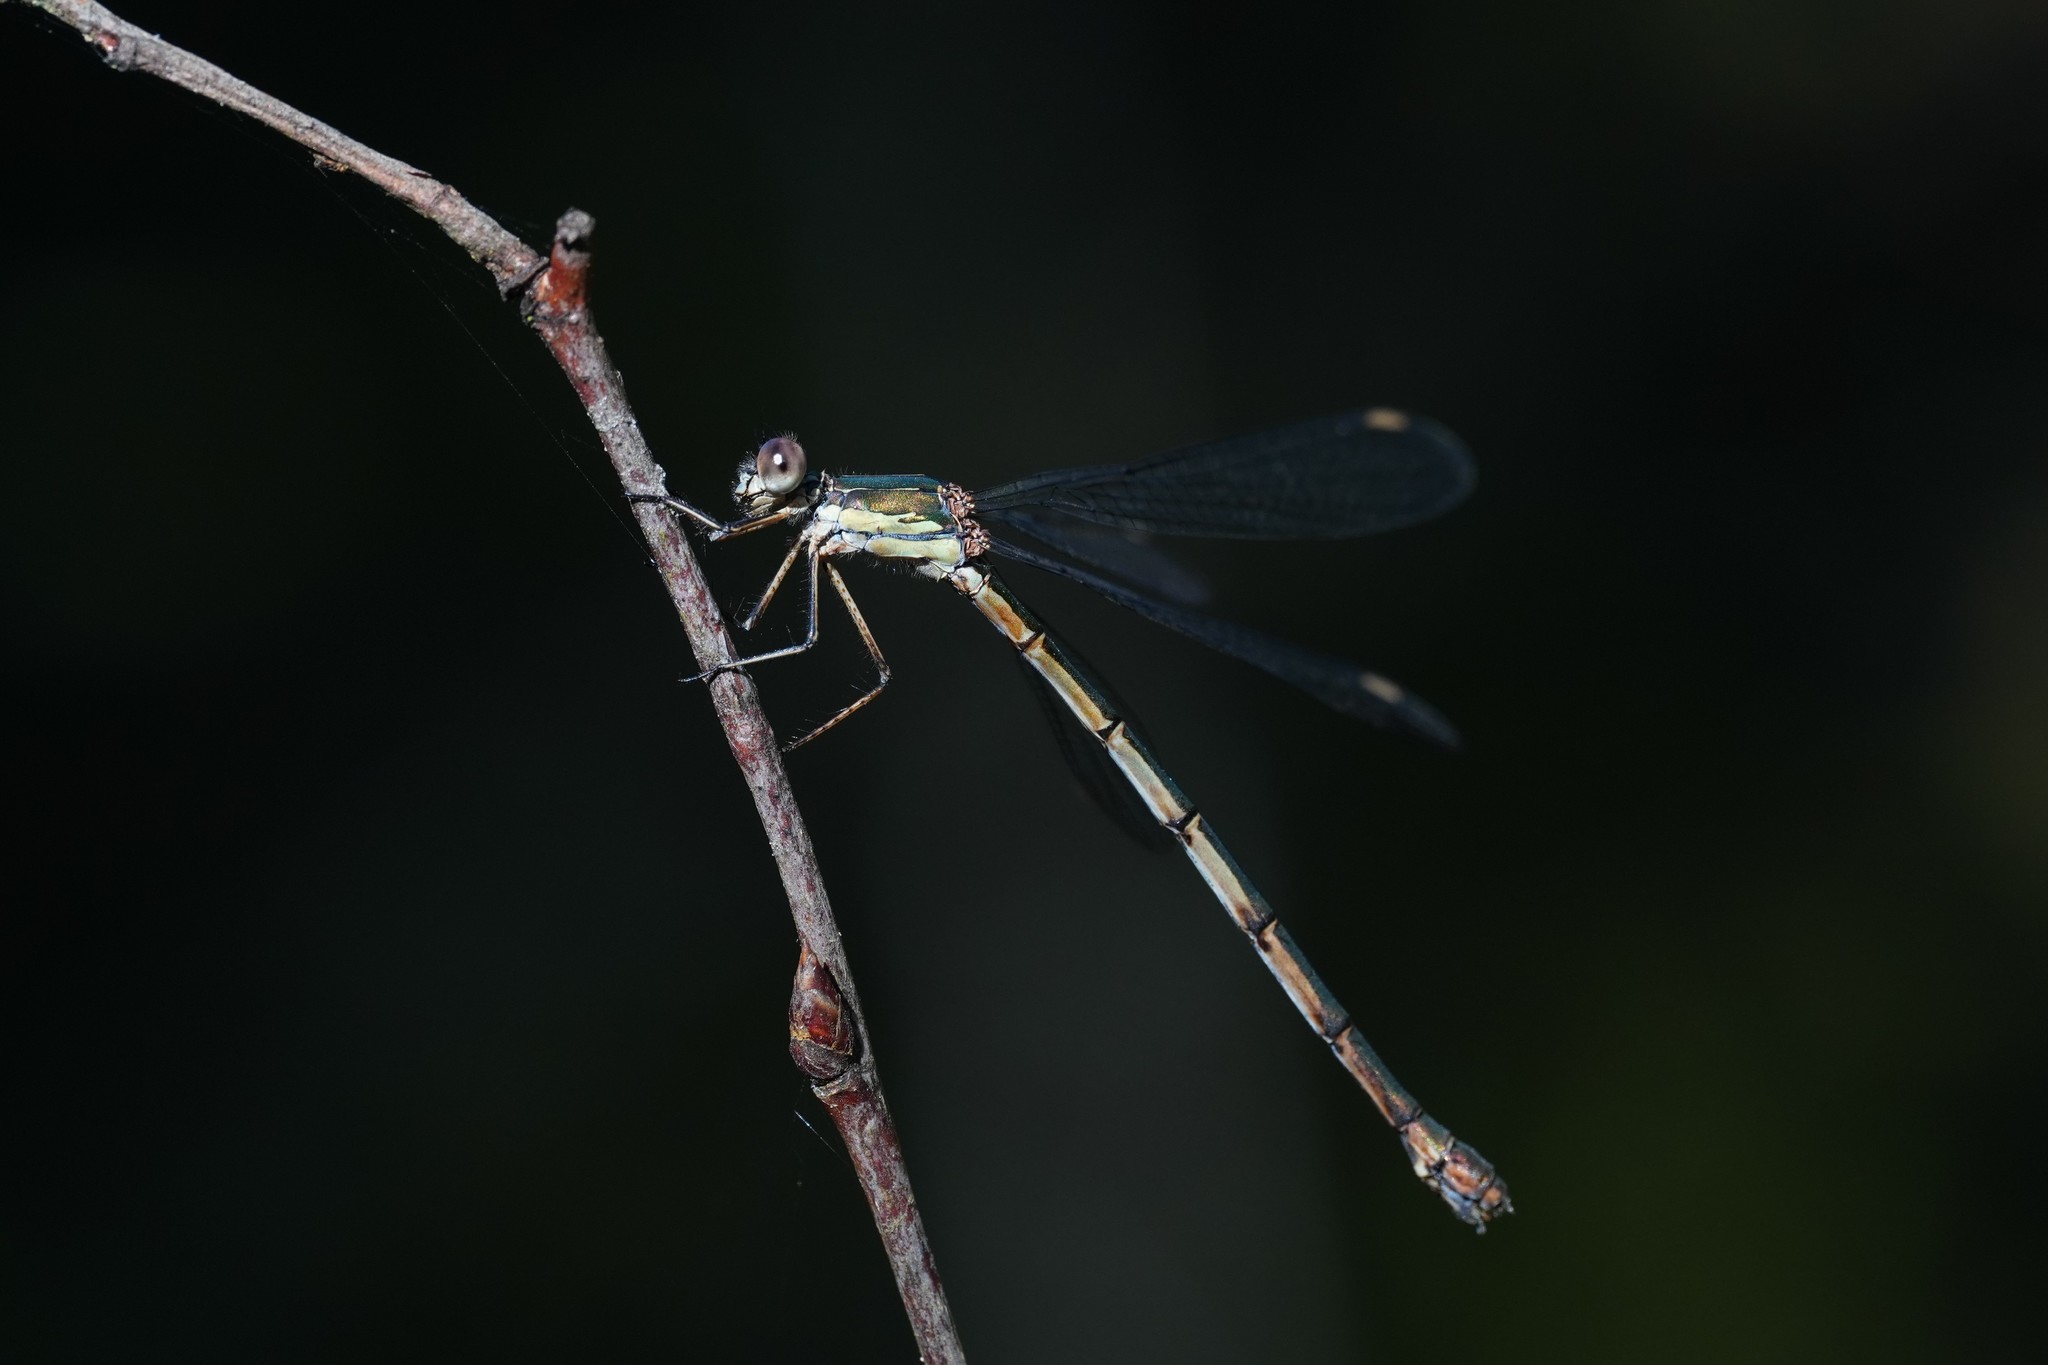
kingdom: Animalia
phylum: Arthropoda
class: Insecta
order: Odonata
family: Lestidae
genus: Chalcolestes
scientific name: Chalcolestes viridis
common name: Green emerald damselfly
